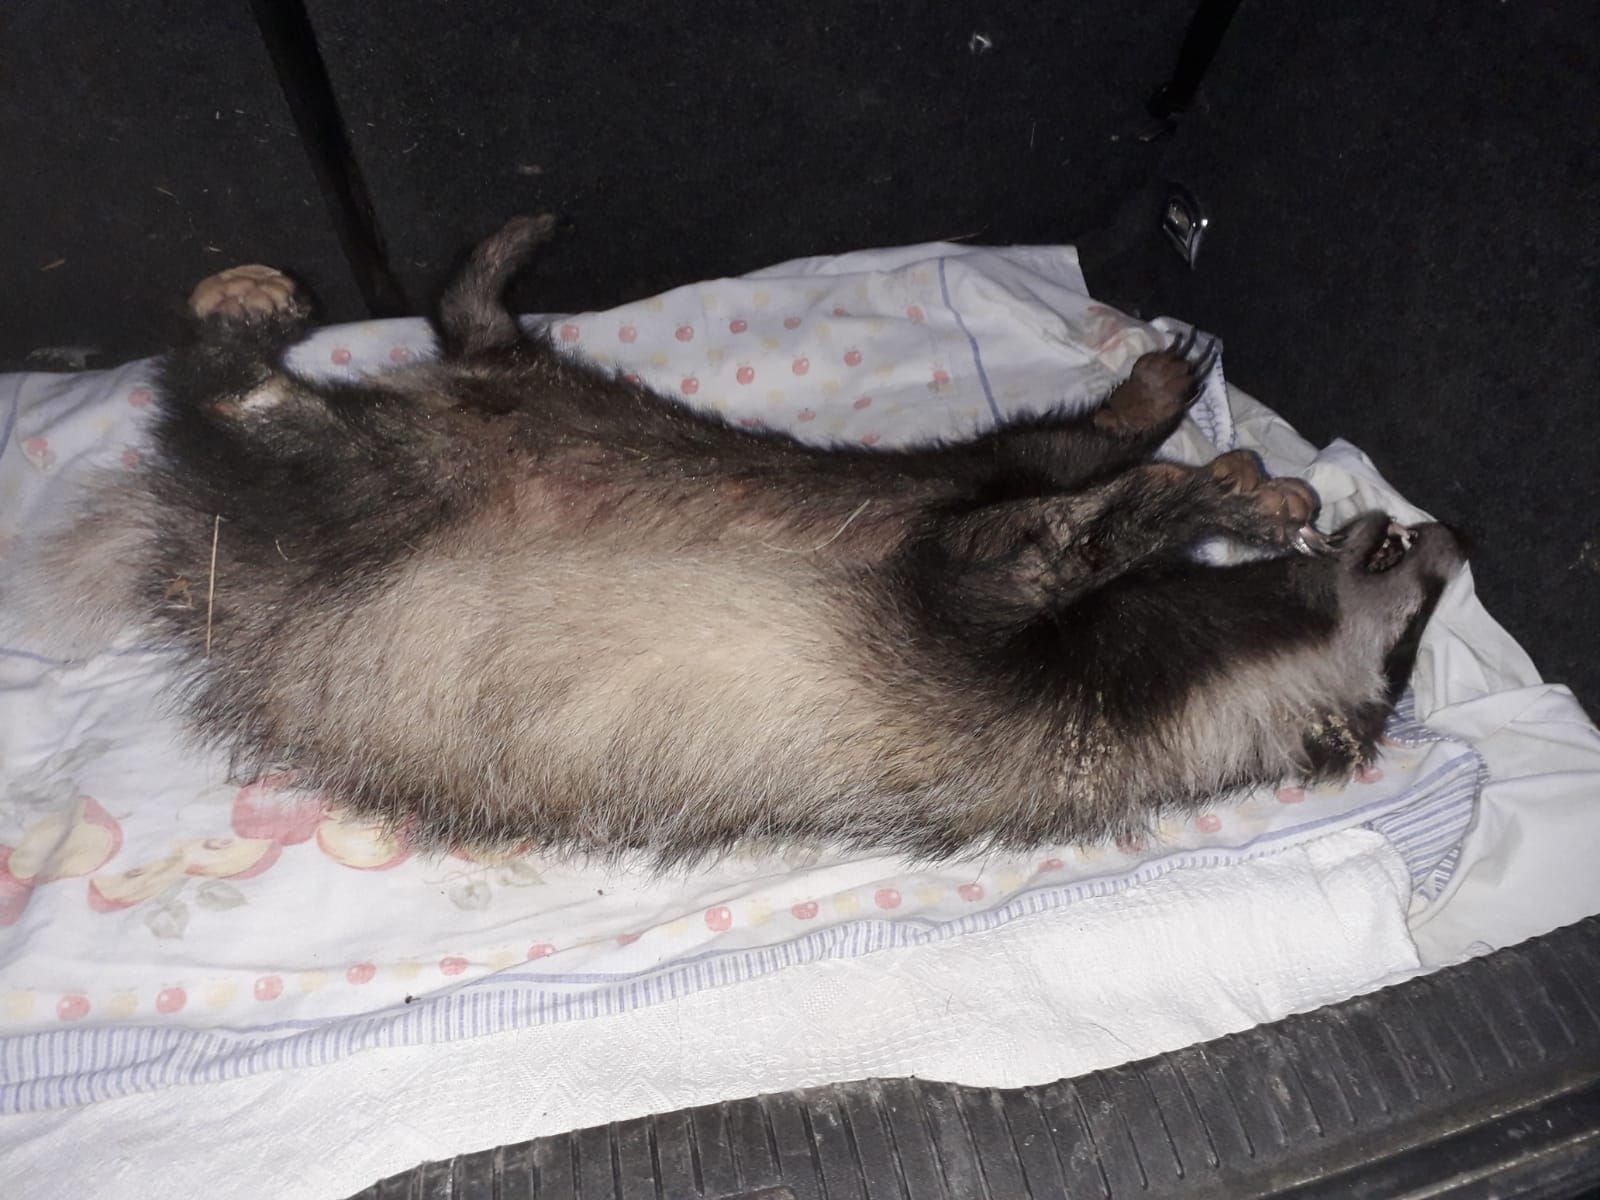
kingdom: Animalia
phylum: Chordata
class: Mammalia
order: Carnivora
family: Mustelidae
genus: Meles
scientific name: Meles meles
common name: Eurasian badger
